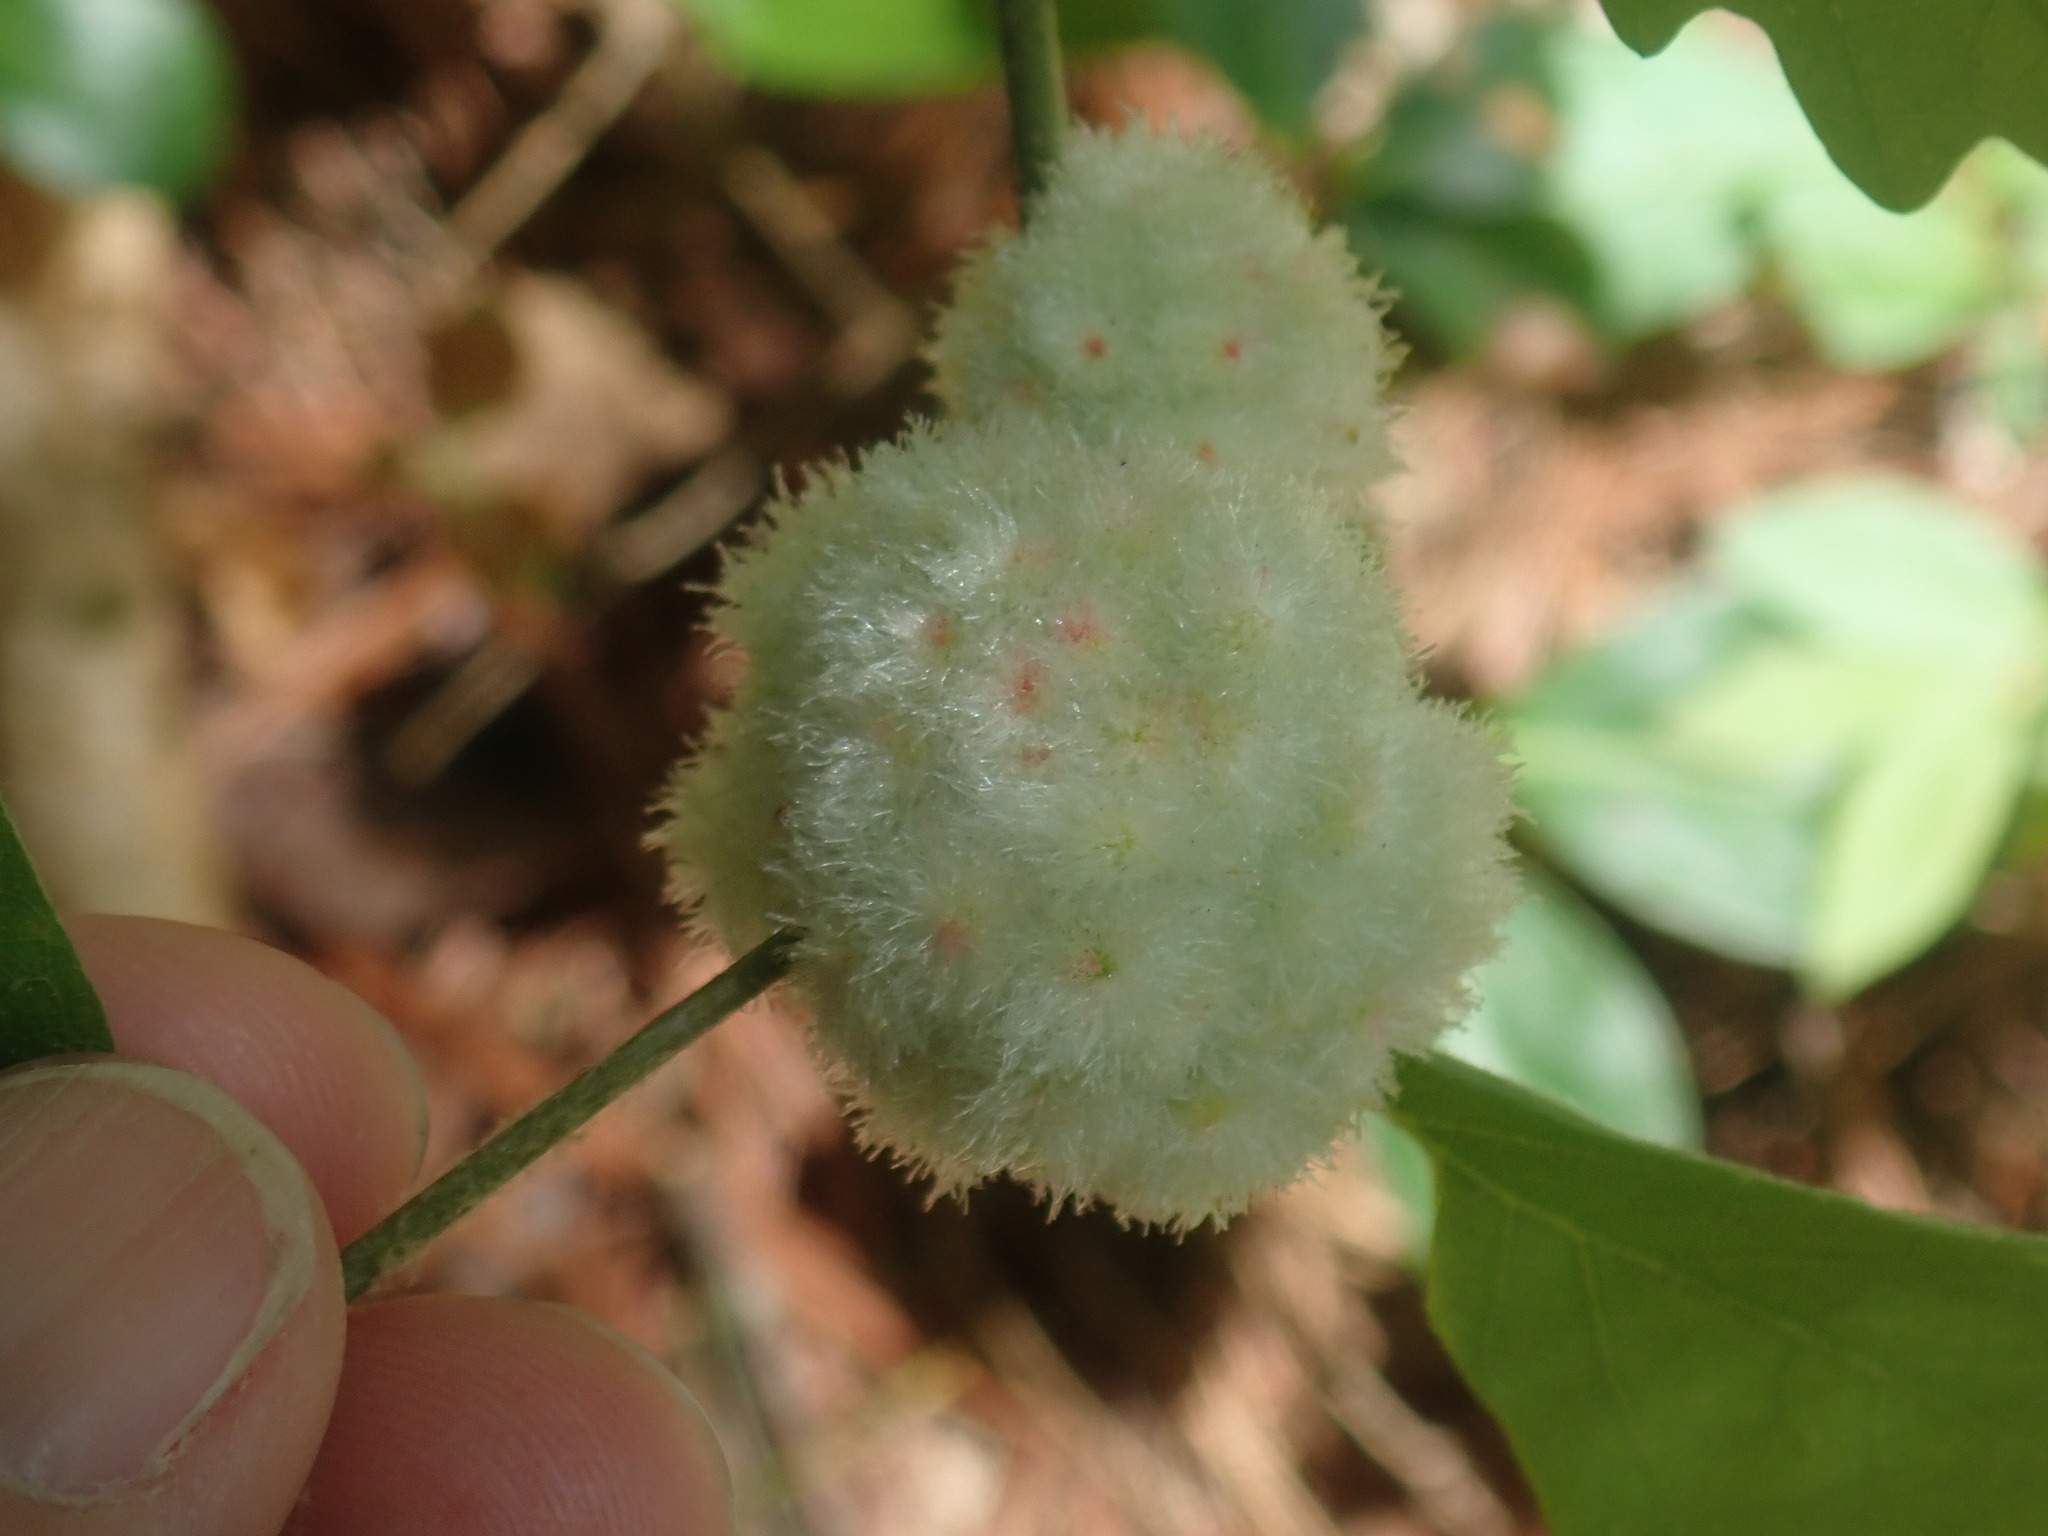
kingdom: Animalia
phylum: Arthropoda
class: Insecta
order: Hymenoptera
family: Cynipidae
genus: Callirhytis
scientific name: Callirhytis
